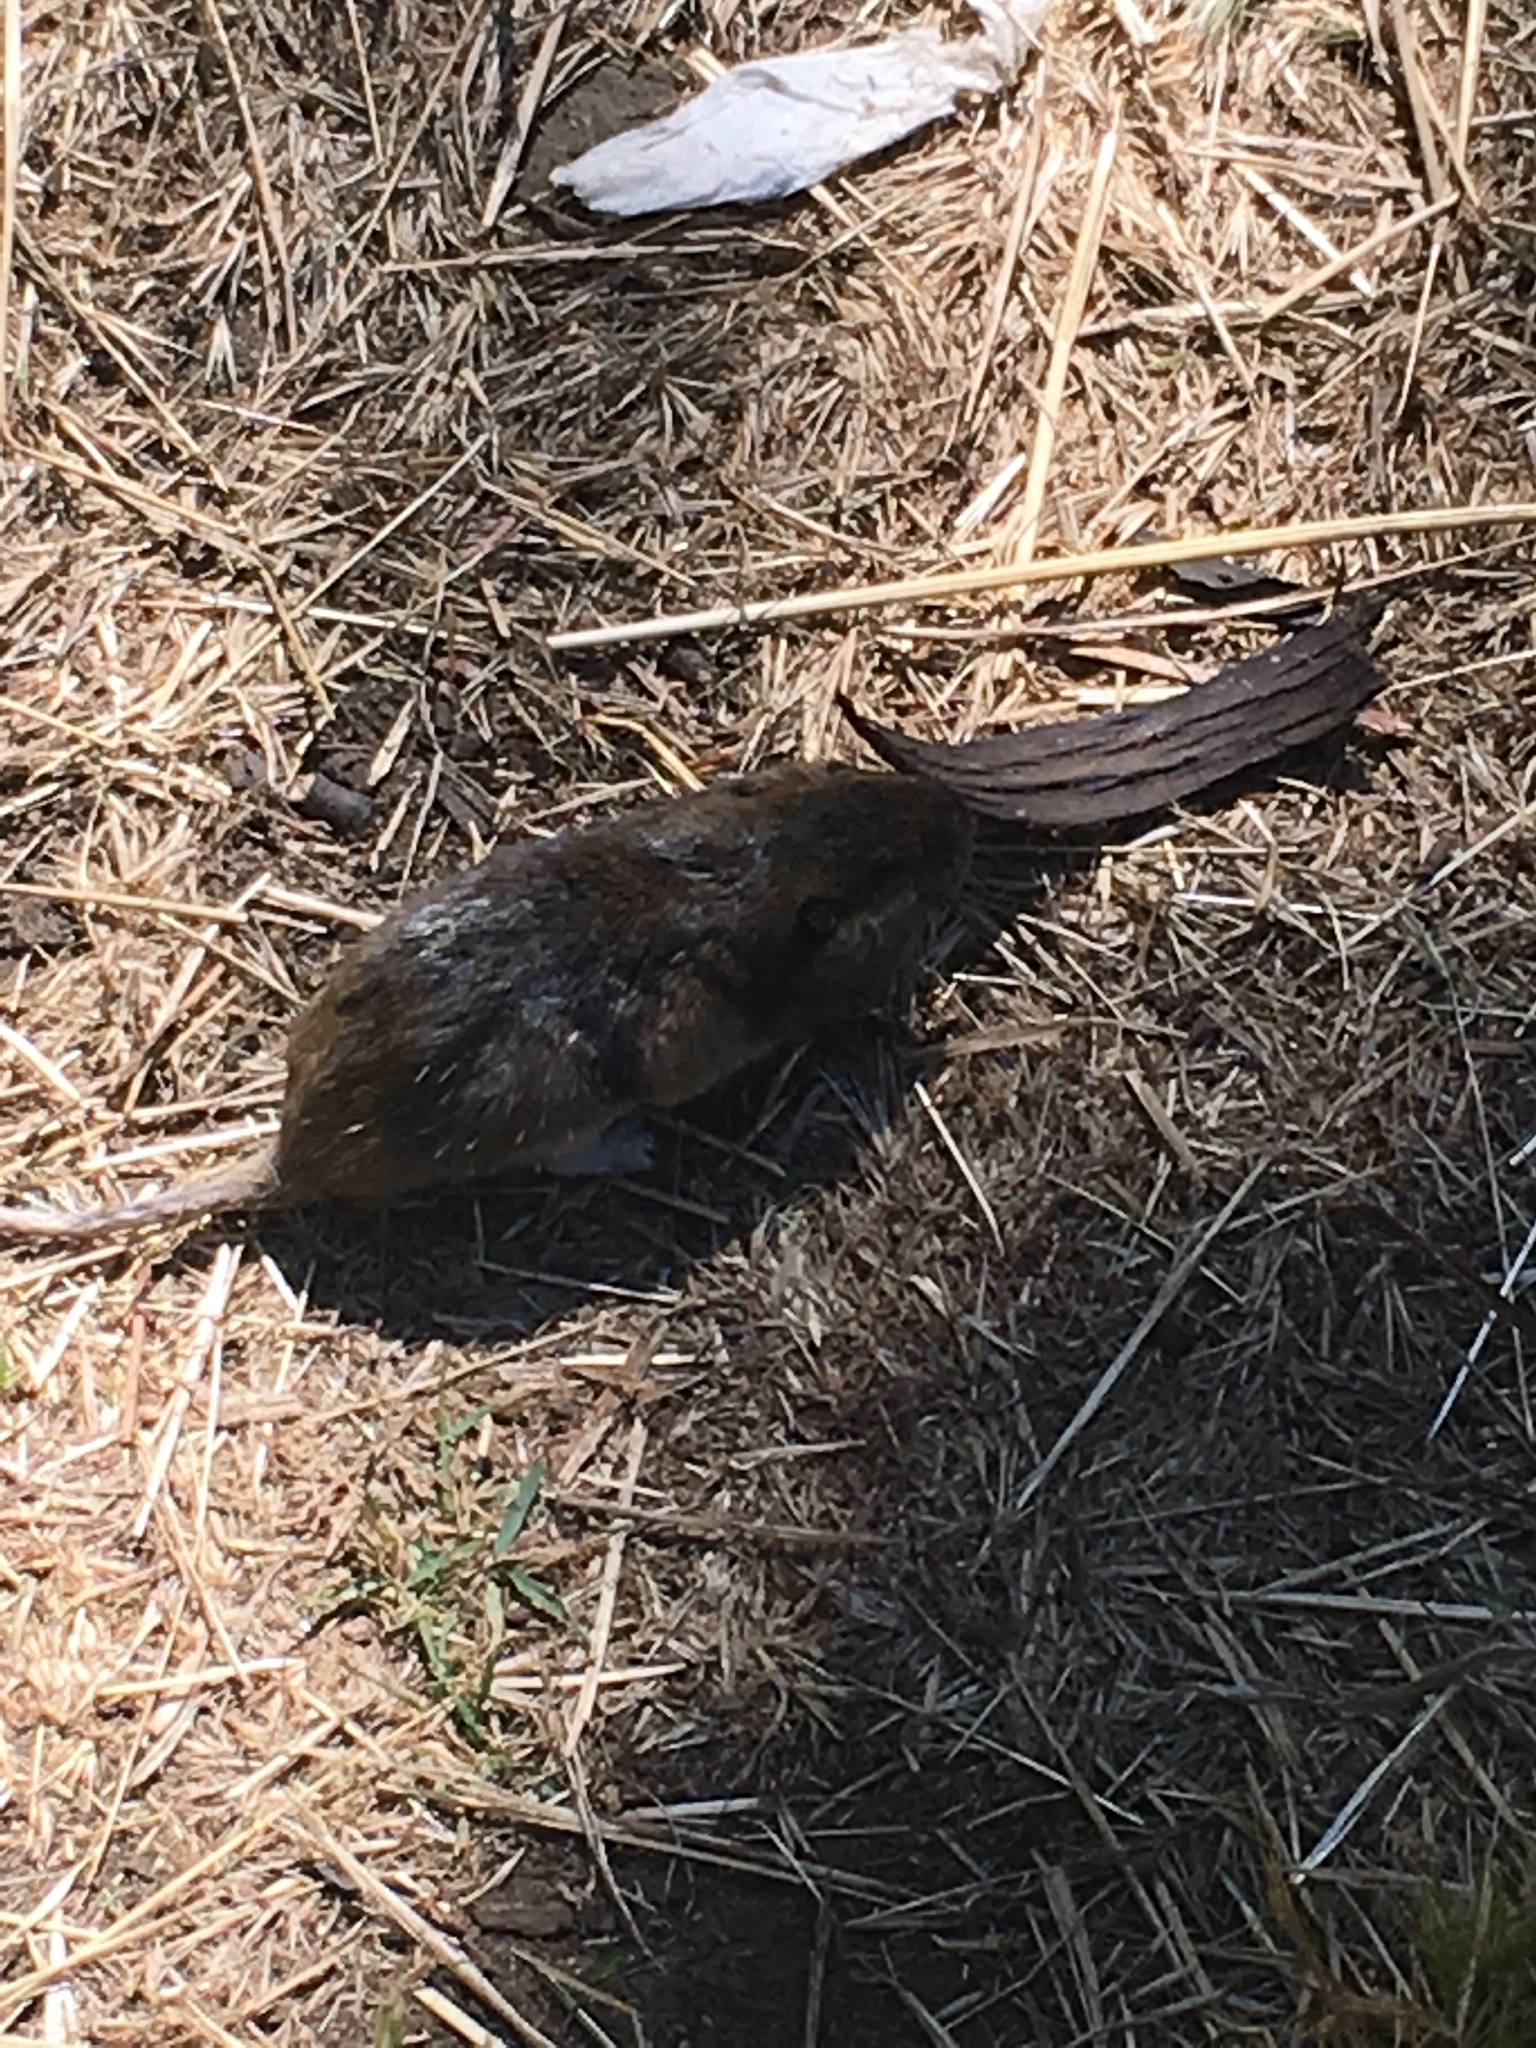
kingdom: Animalia
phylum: Chordata
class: Mammalia
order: Rodentia
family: Geomyidae
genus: Thomomys
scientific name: Thomomys bottae
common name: Botta's pocket gopher
